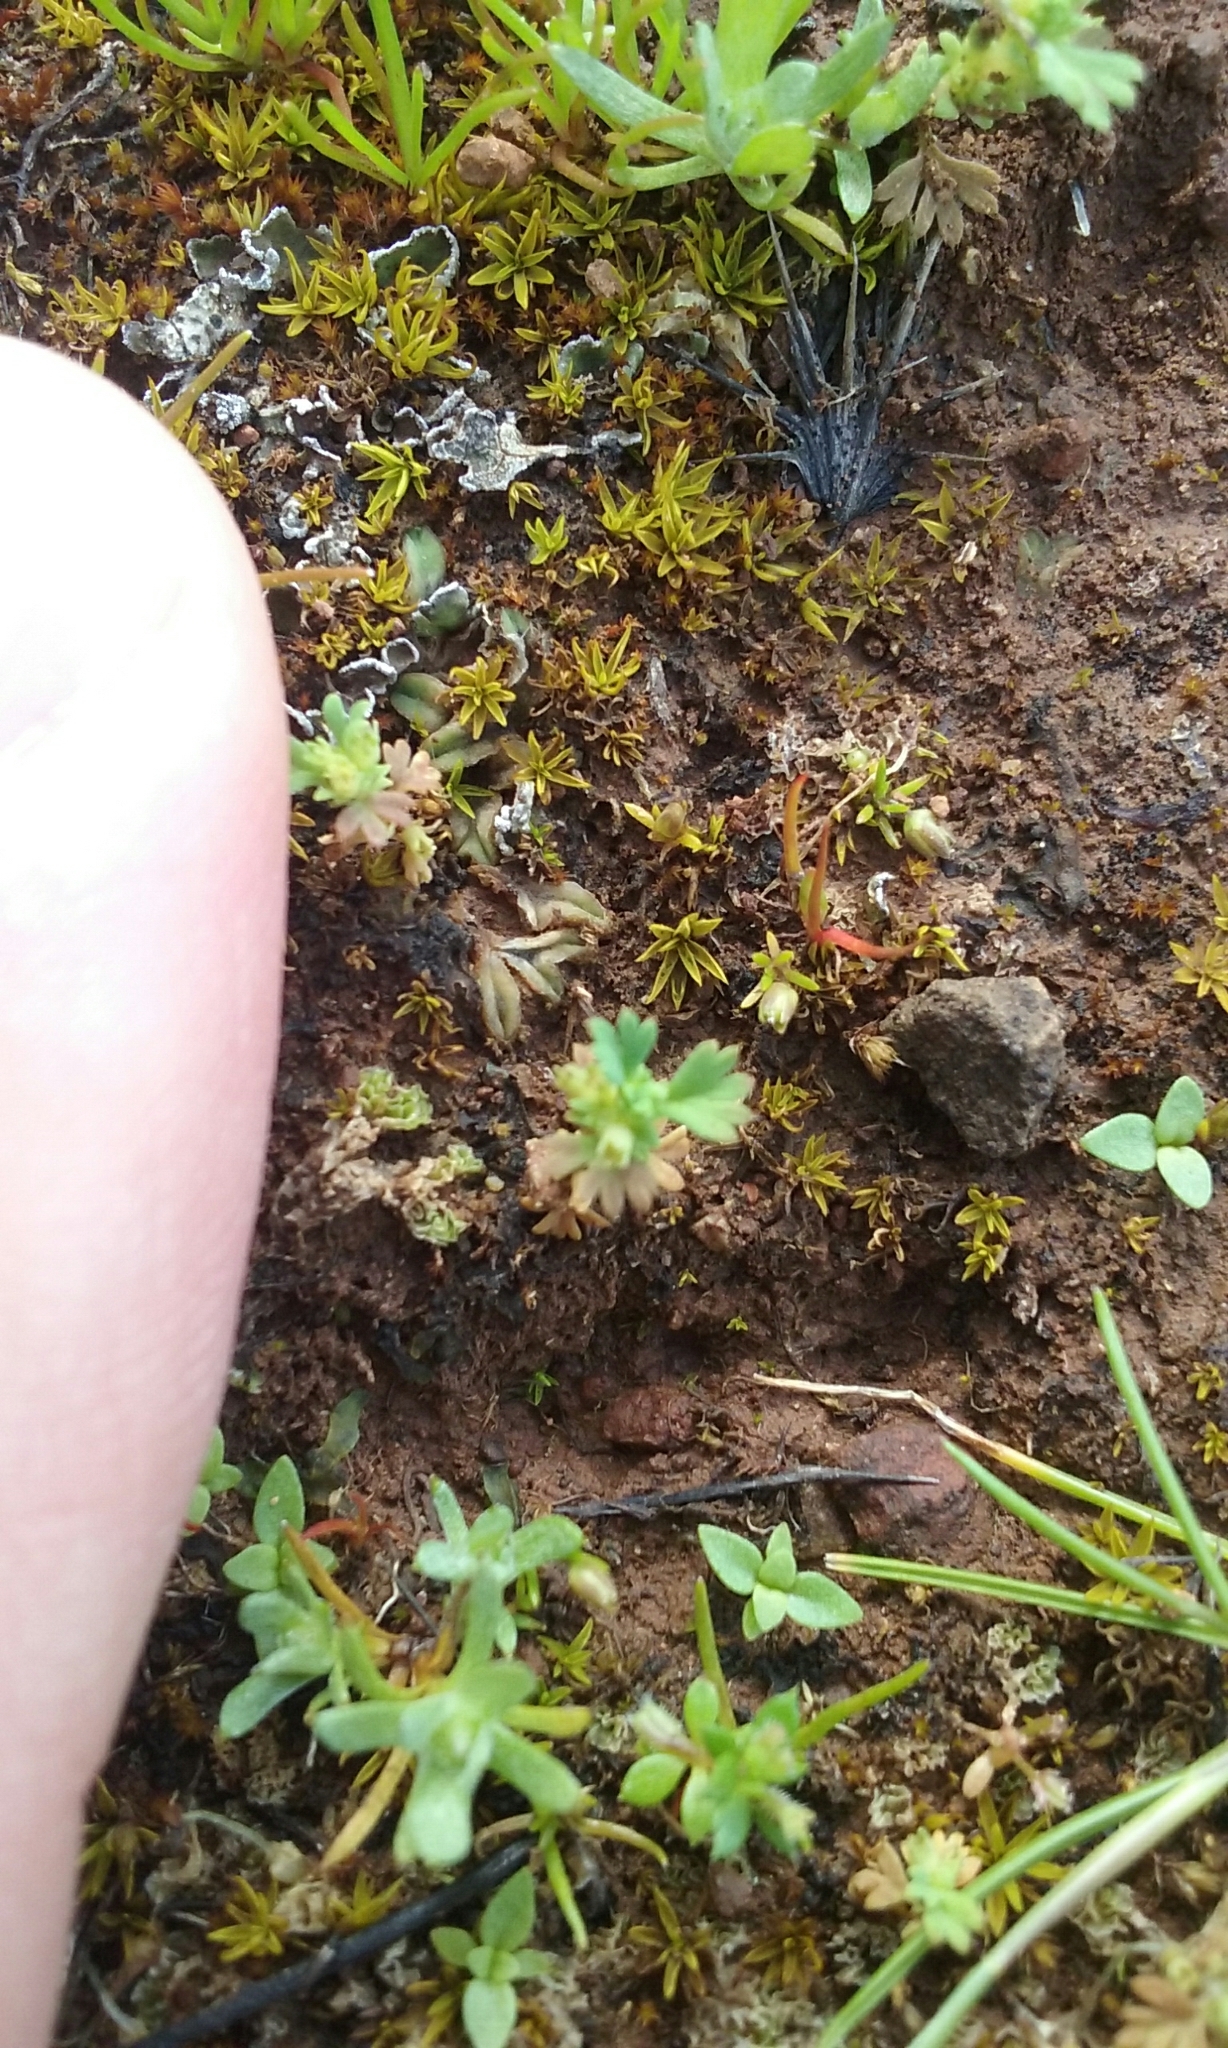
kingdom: Plantae
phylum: Tracheophyta
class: Magnoliopsida
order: Rosales
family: Rosaceae
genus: Aphanes
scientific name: Aphanes arvensis
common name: Parsley-piert
